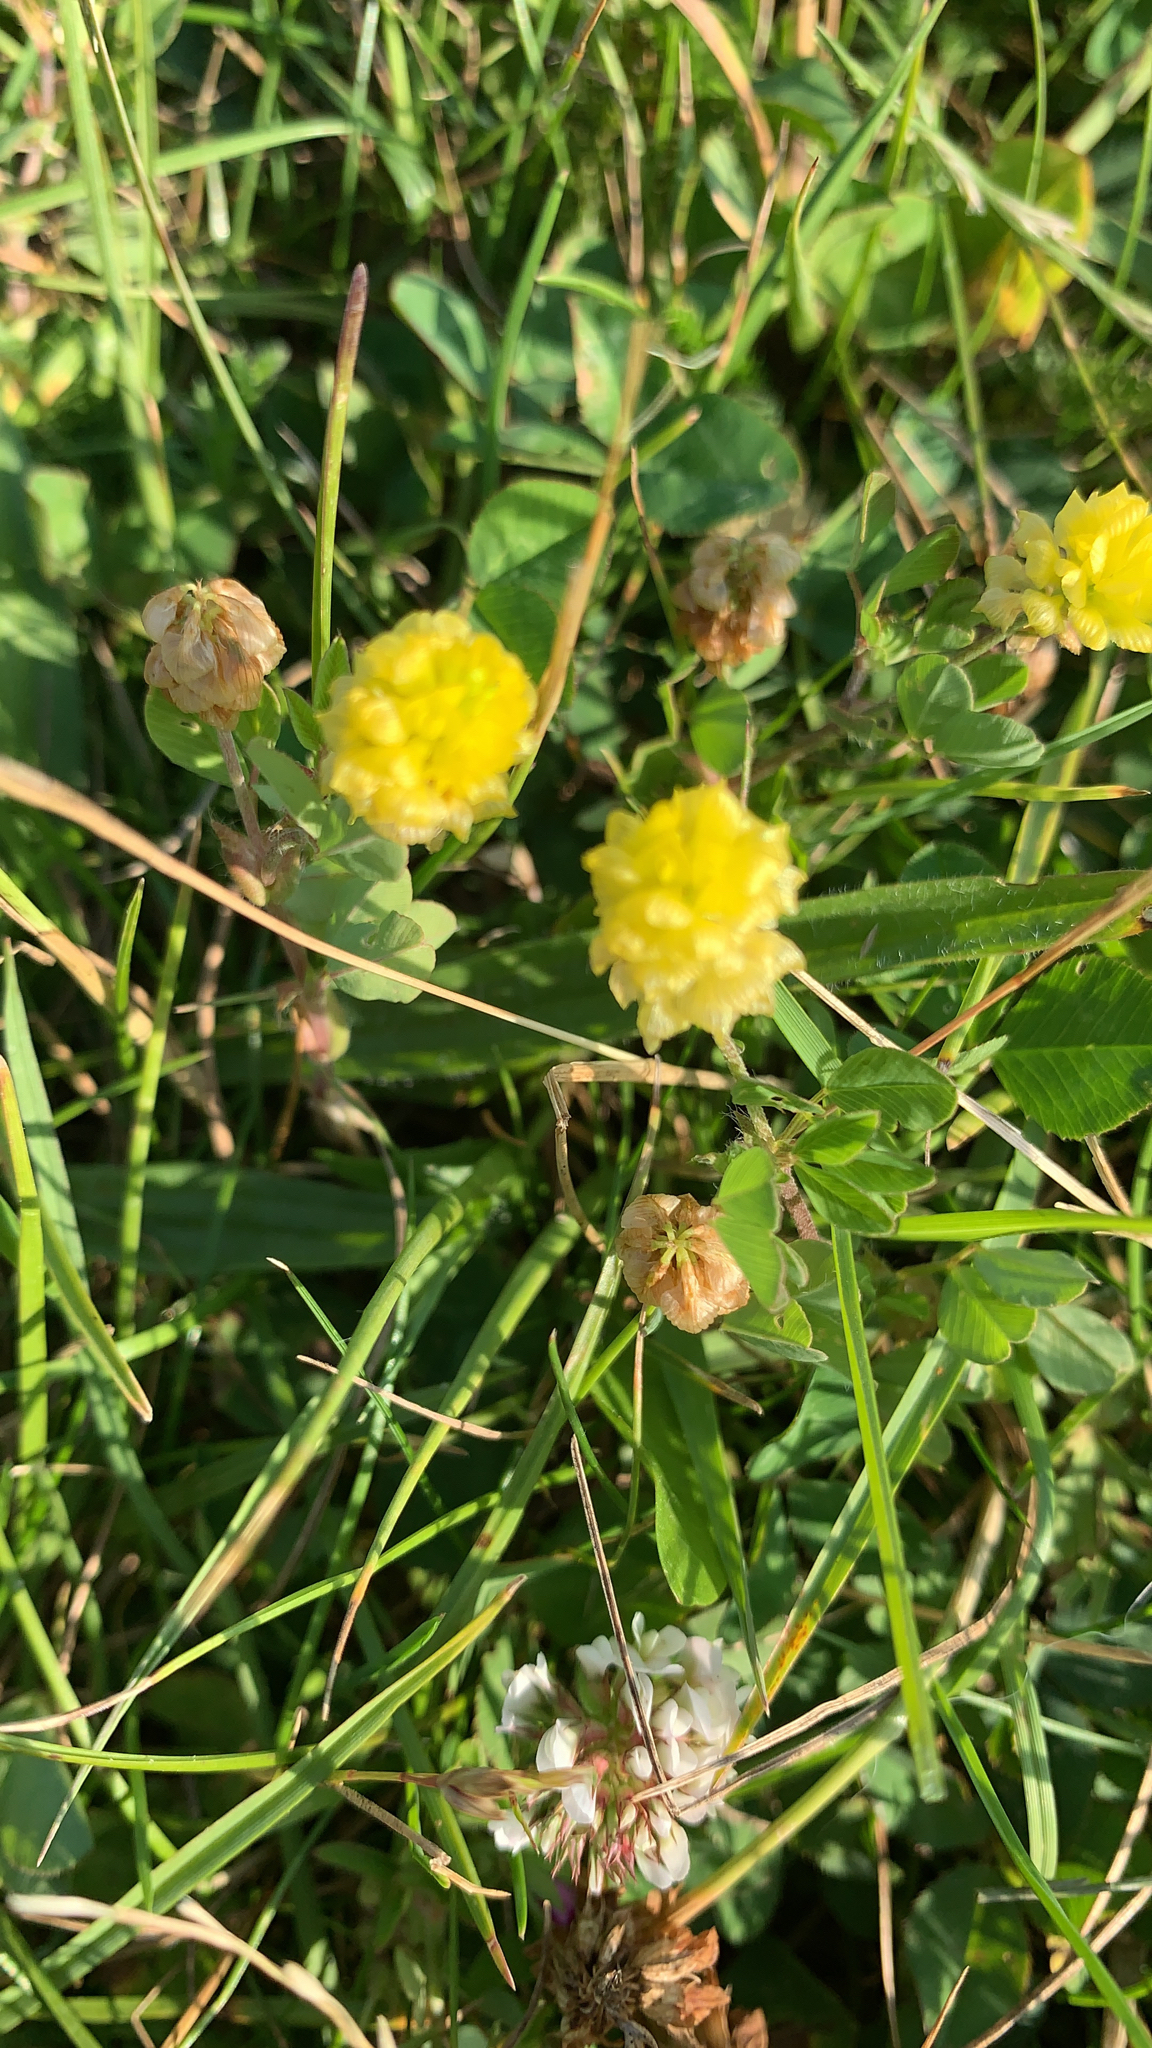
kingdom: Plantae
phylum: Tracheophyta
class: Magnoliopsida
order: Fabales
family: Fabaceae
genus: Trifolium
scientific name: Trifolium campestre
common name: Field clover
